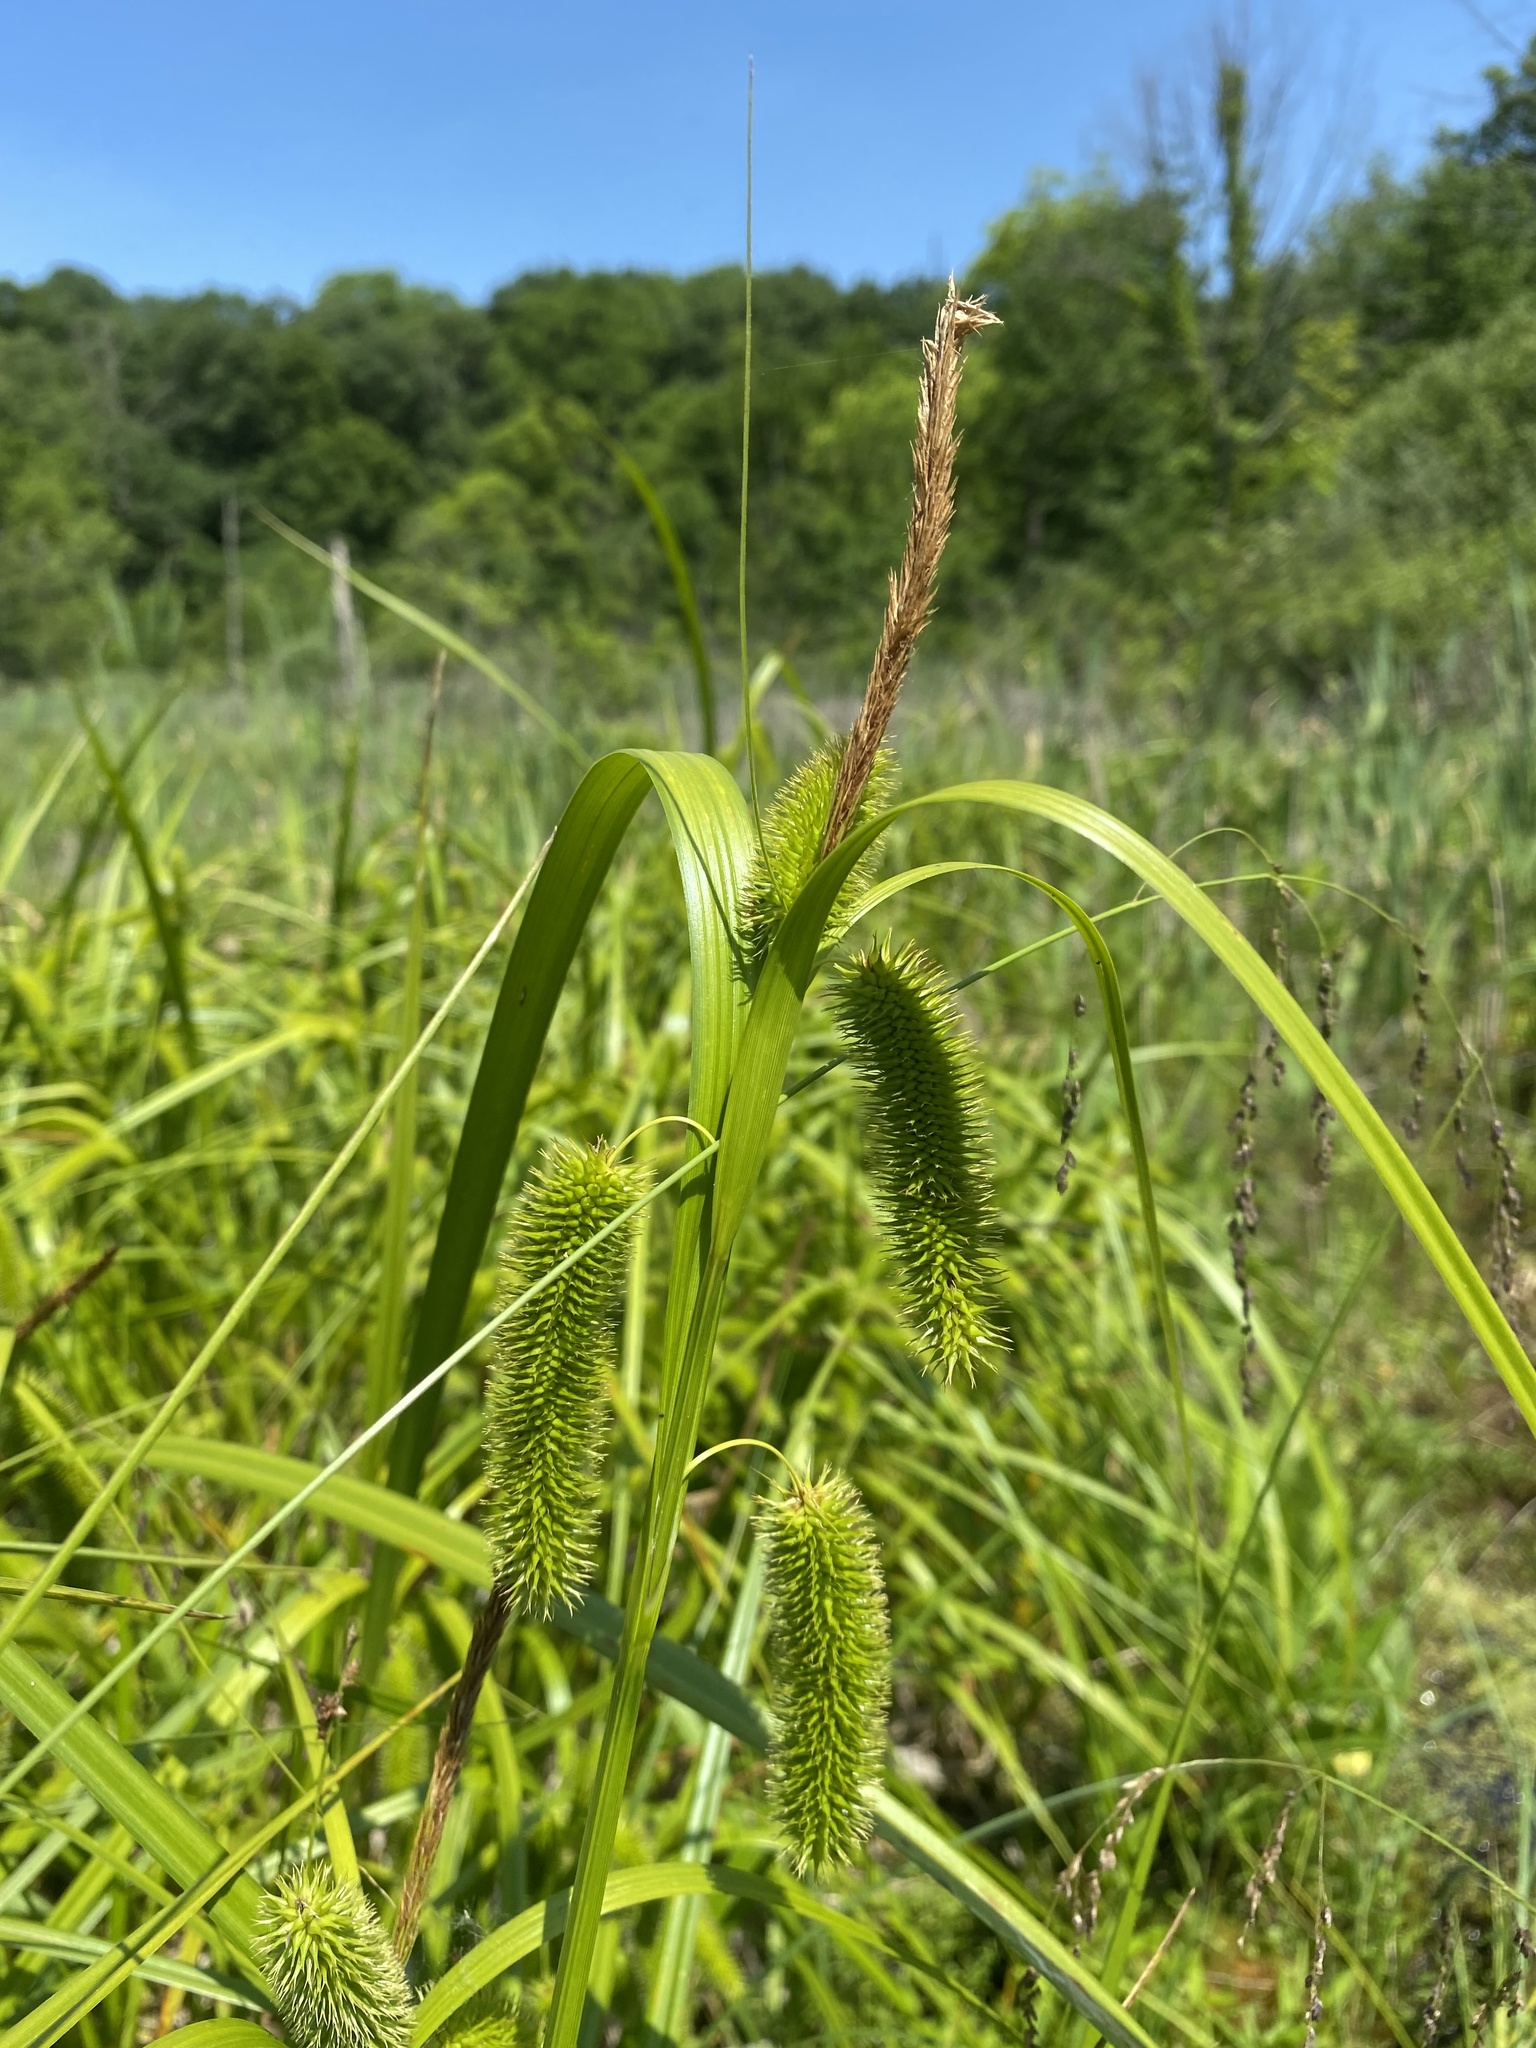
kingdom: Plantae
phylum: Tracheophyta
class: Liliopsida
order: Poales
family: Cyperaceae
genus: Carex
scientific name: Carex comosa
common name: Bristly sedge
